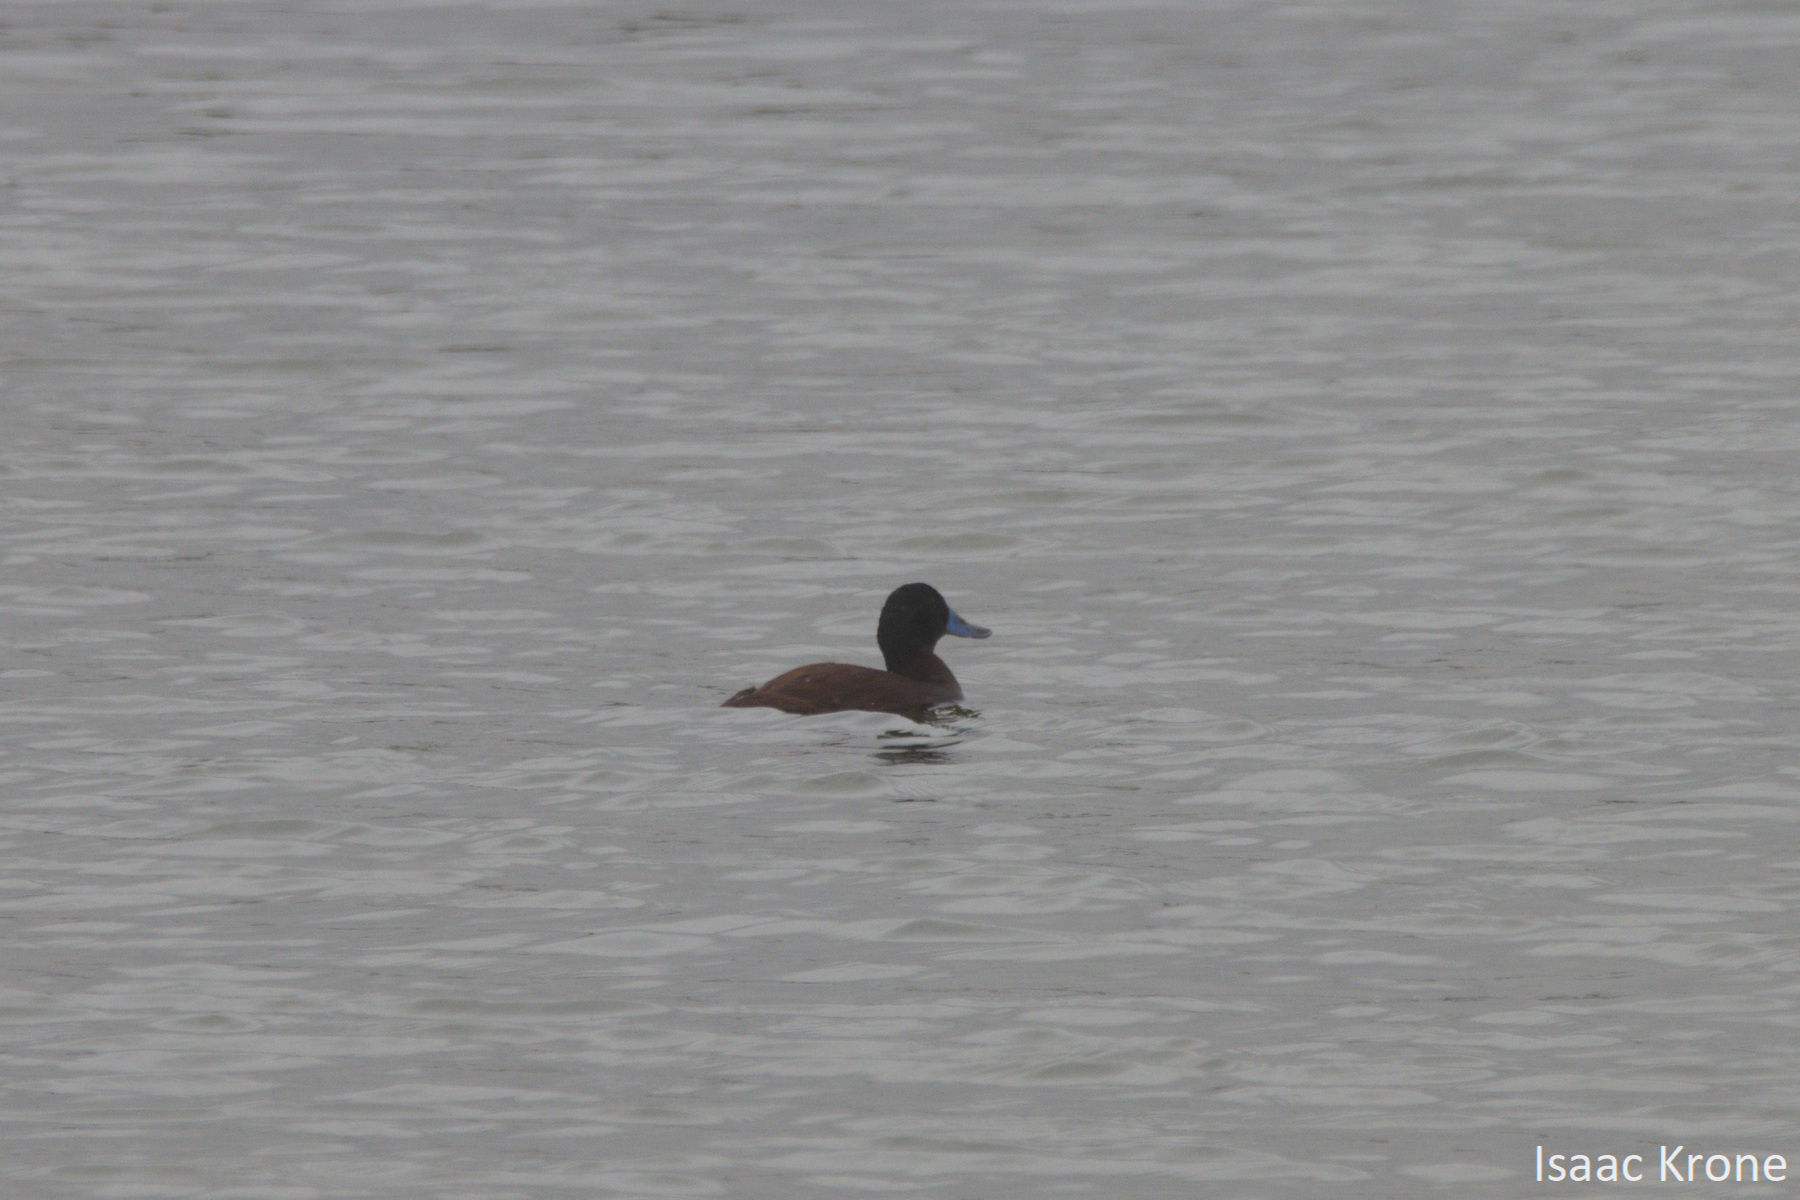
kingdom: Animalia
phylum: Chordata
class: Aves
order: Anseriformes
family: Anatidae
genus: Oxyura
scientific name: Oxyura ferruginea
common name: Andean duck
